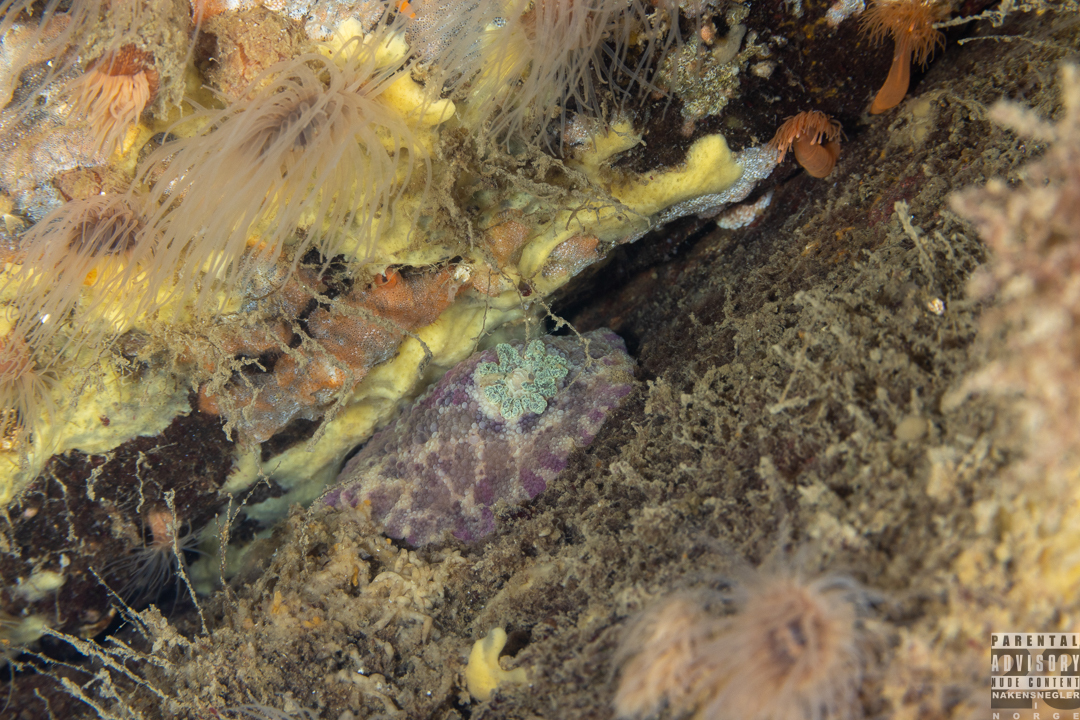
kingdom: Animalia
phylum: Mollusca
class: Gastropoda
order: Nudibranchia
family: Dorididae
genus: Doris
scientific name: Doris pseudoargus
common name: Sea lemon
